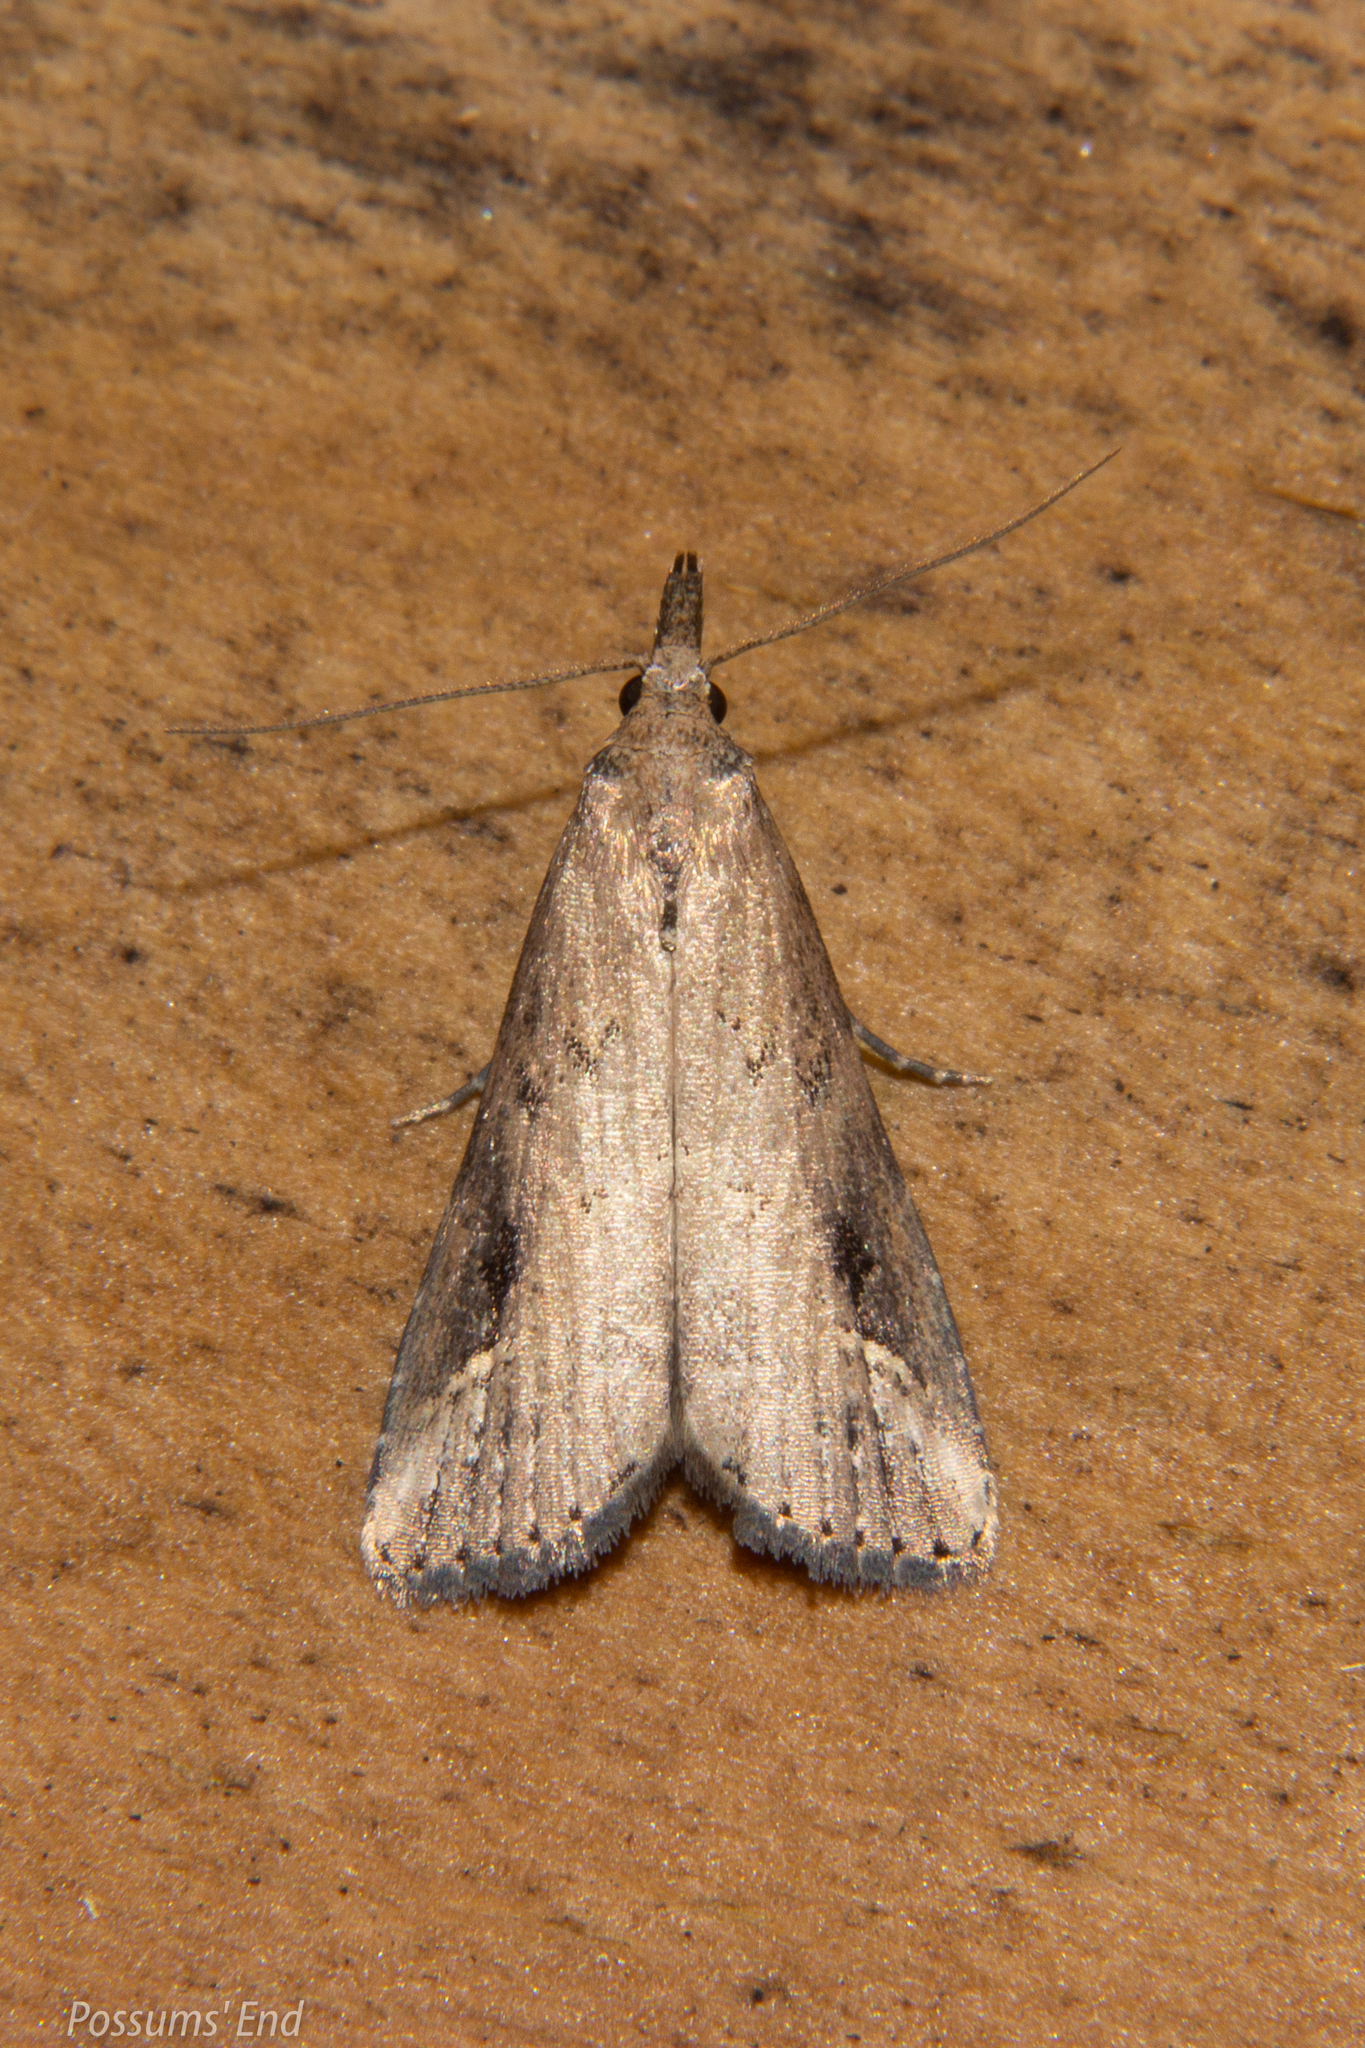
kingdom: Animalia
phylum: Arthropoda
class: Insecta
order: Lepidoptera
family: Erebidae
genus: Schrankia
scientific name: Schrankia costaestrigalis
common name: Pinion-streaked snout
